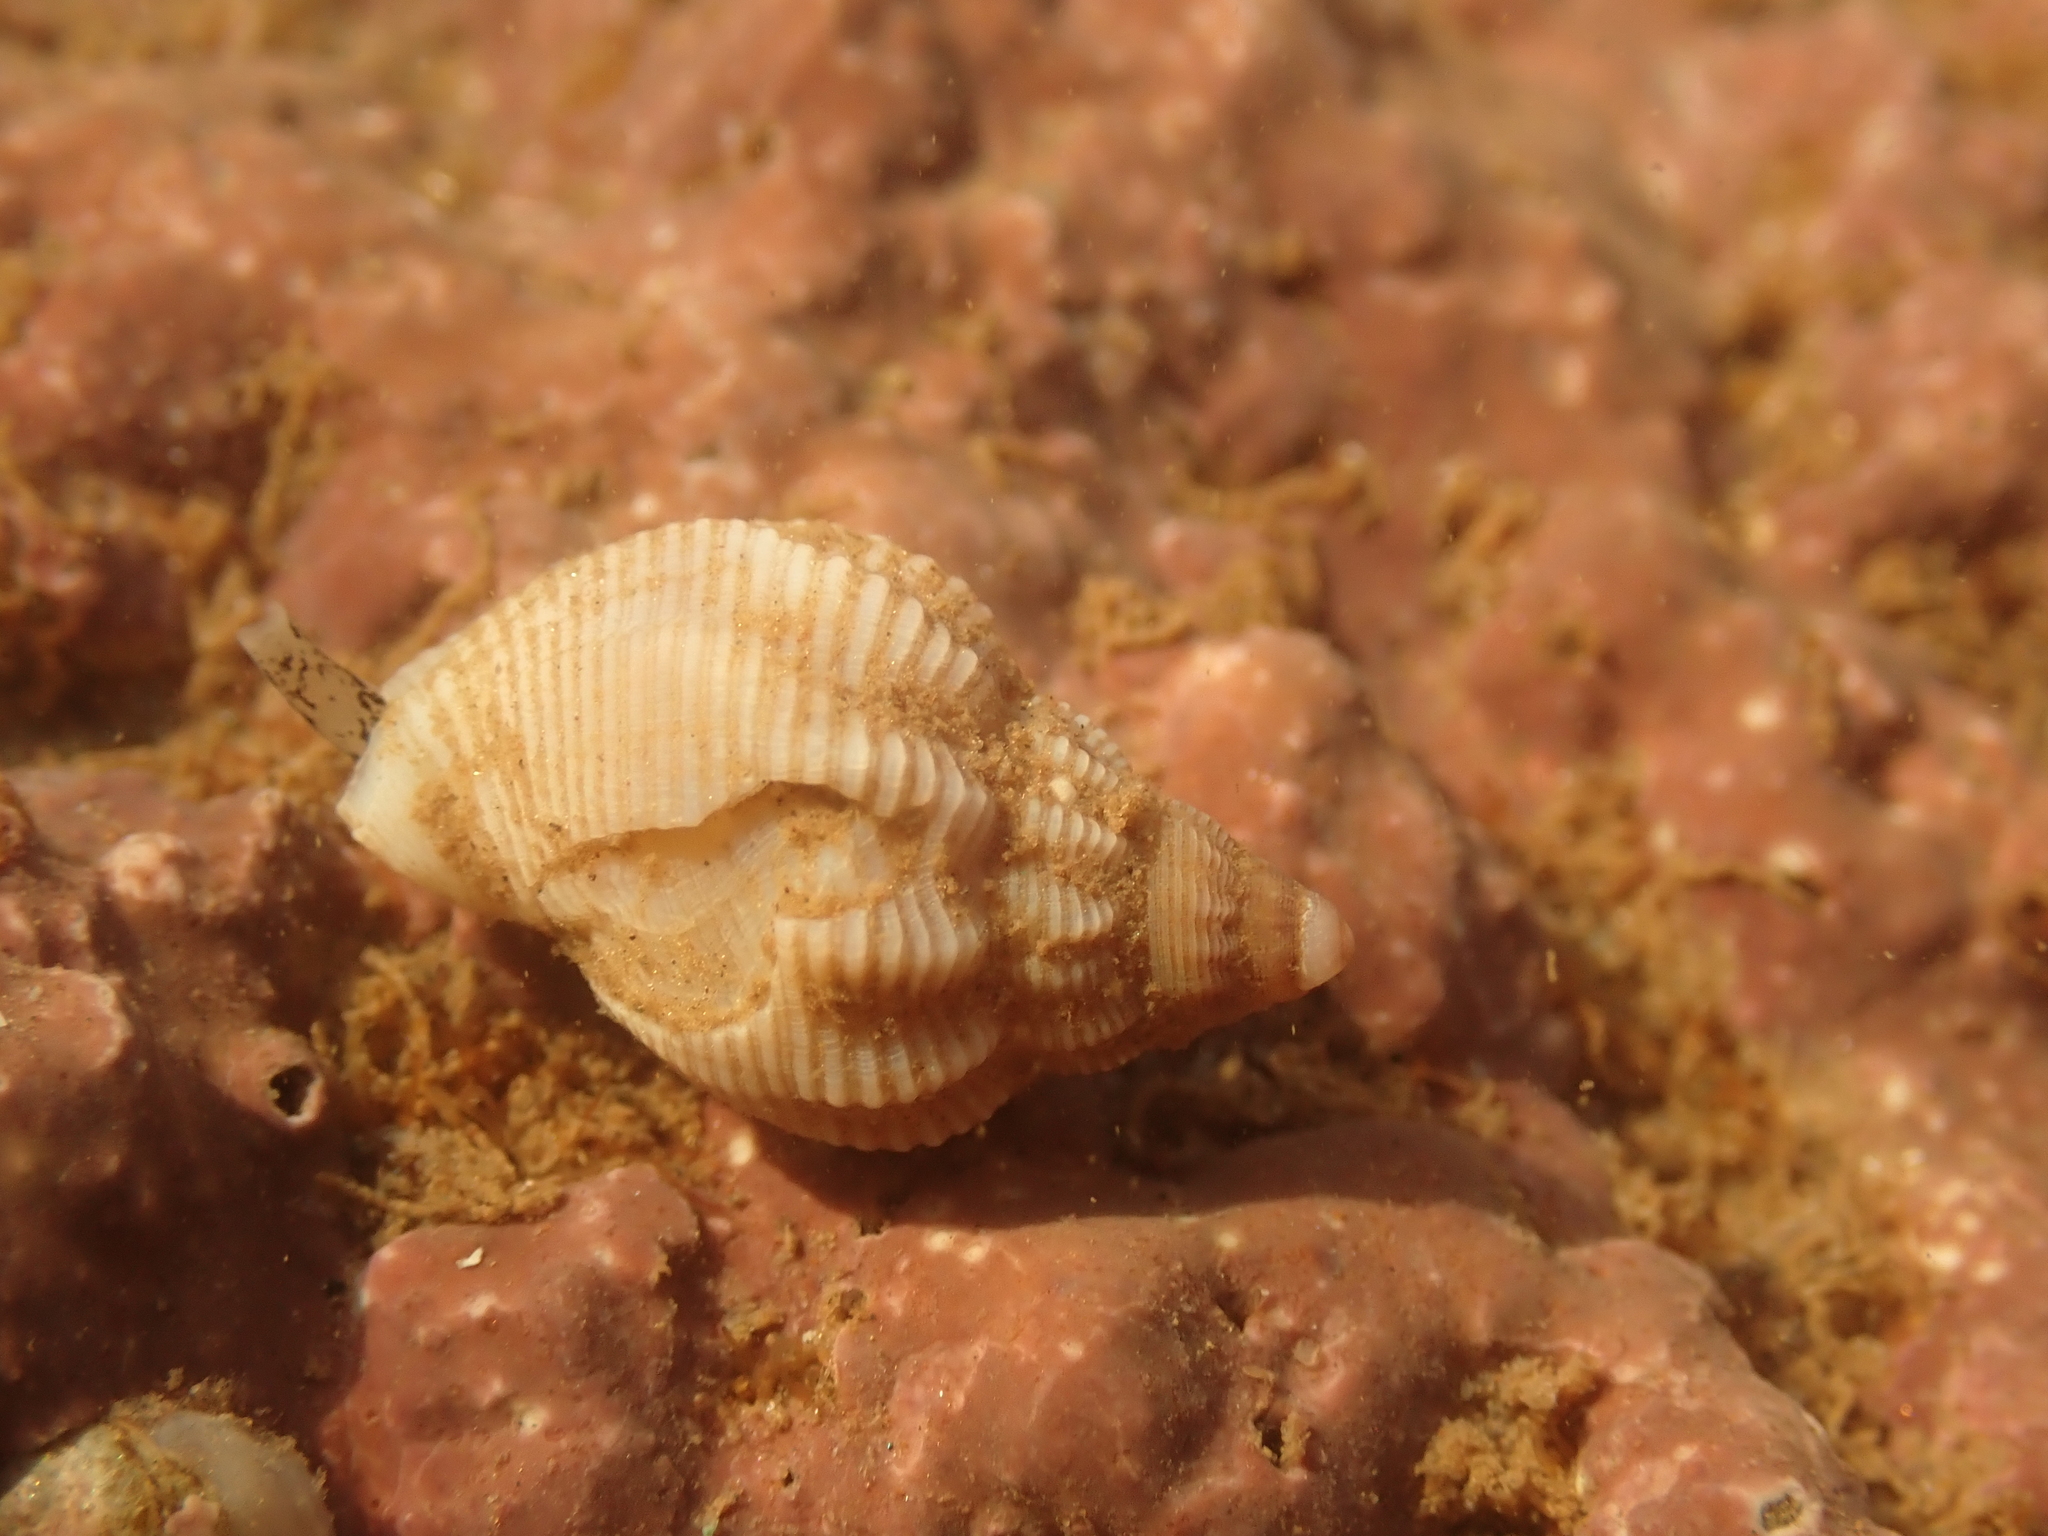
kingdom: Animalia
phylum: Mollusca
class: Gastropoda
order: Neogastropoda
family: Buccinidae
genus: Buccinum
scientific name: Buccinum undatum
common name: Common whelk
